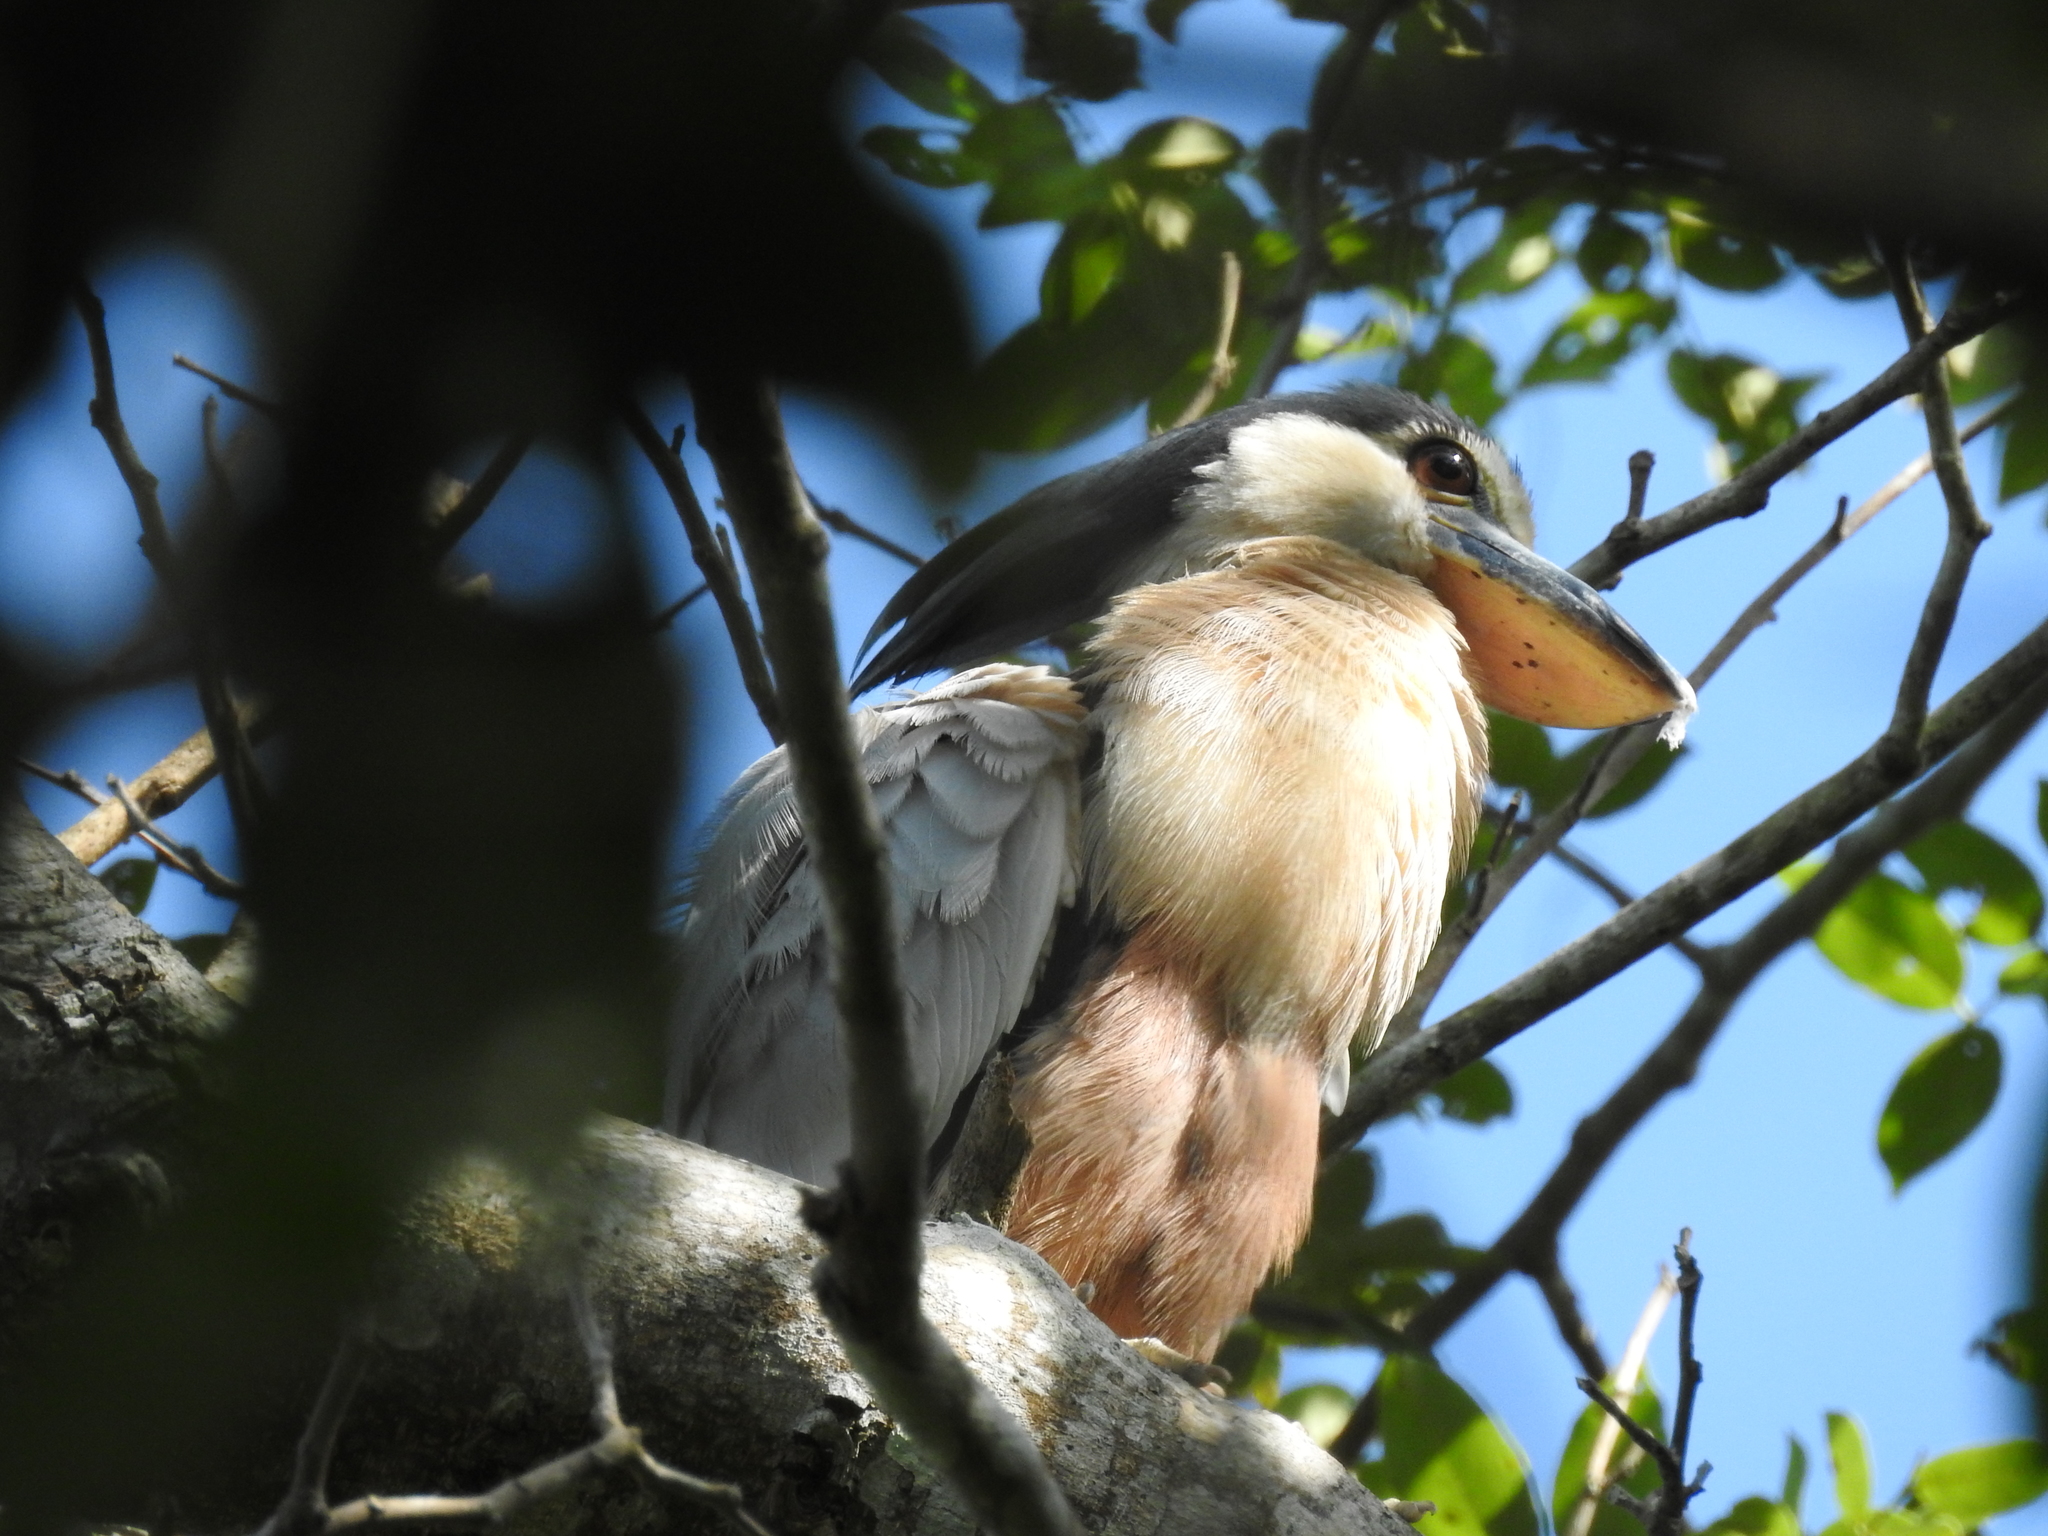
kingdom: Animalia
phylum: Chordata
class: Aves
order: Pelecaniformes
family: Ardeidae
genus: Cochlearius
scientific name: Cochlearius cochlearius
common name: Boat-billed heron
